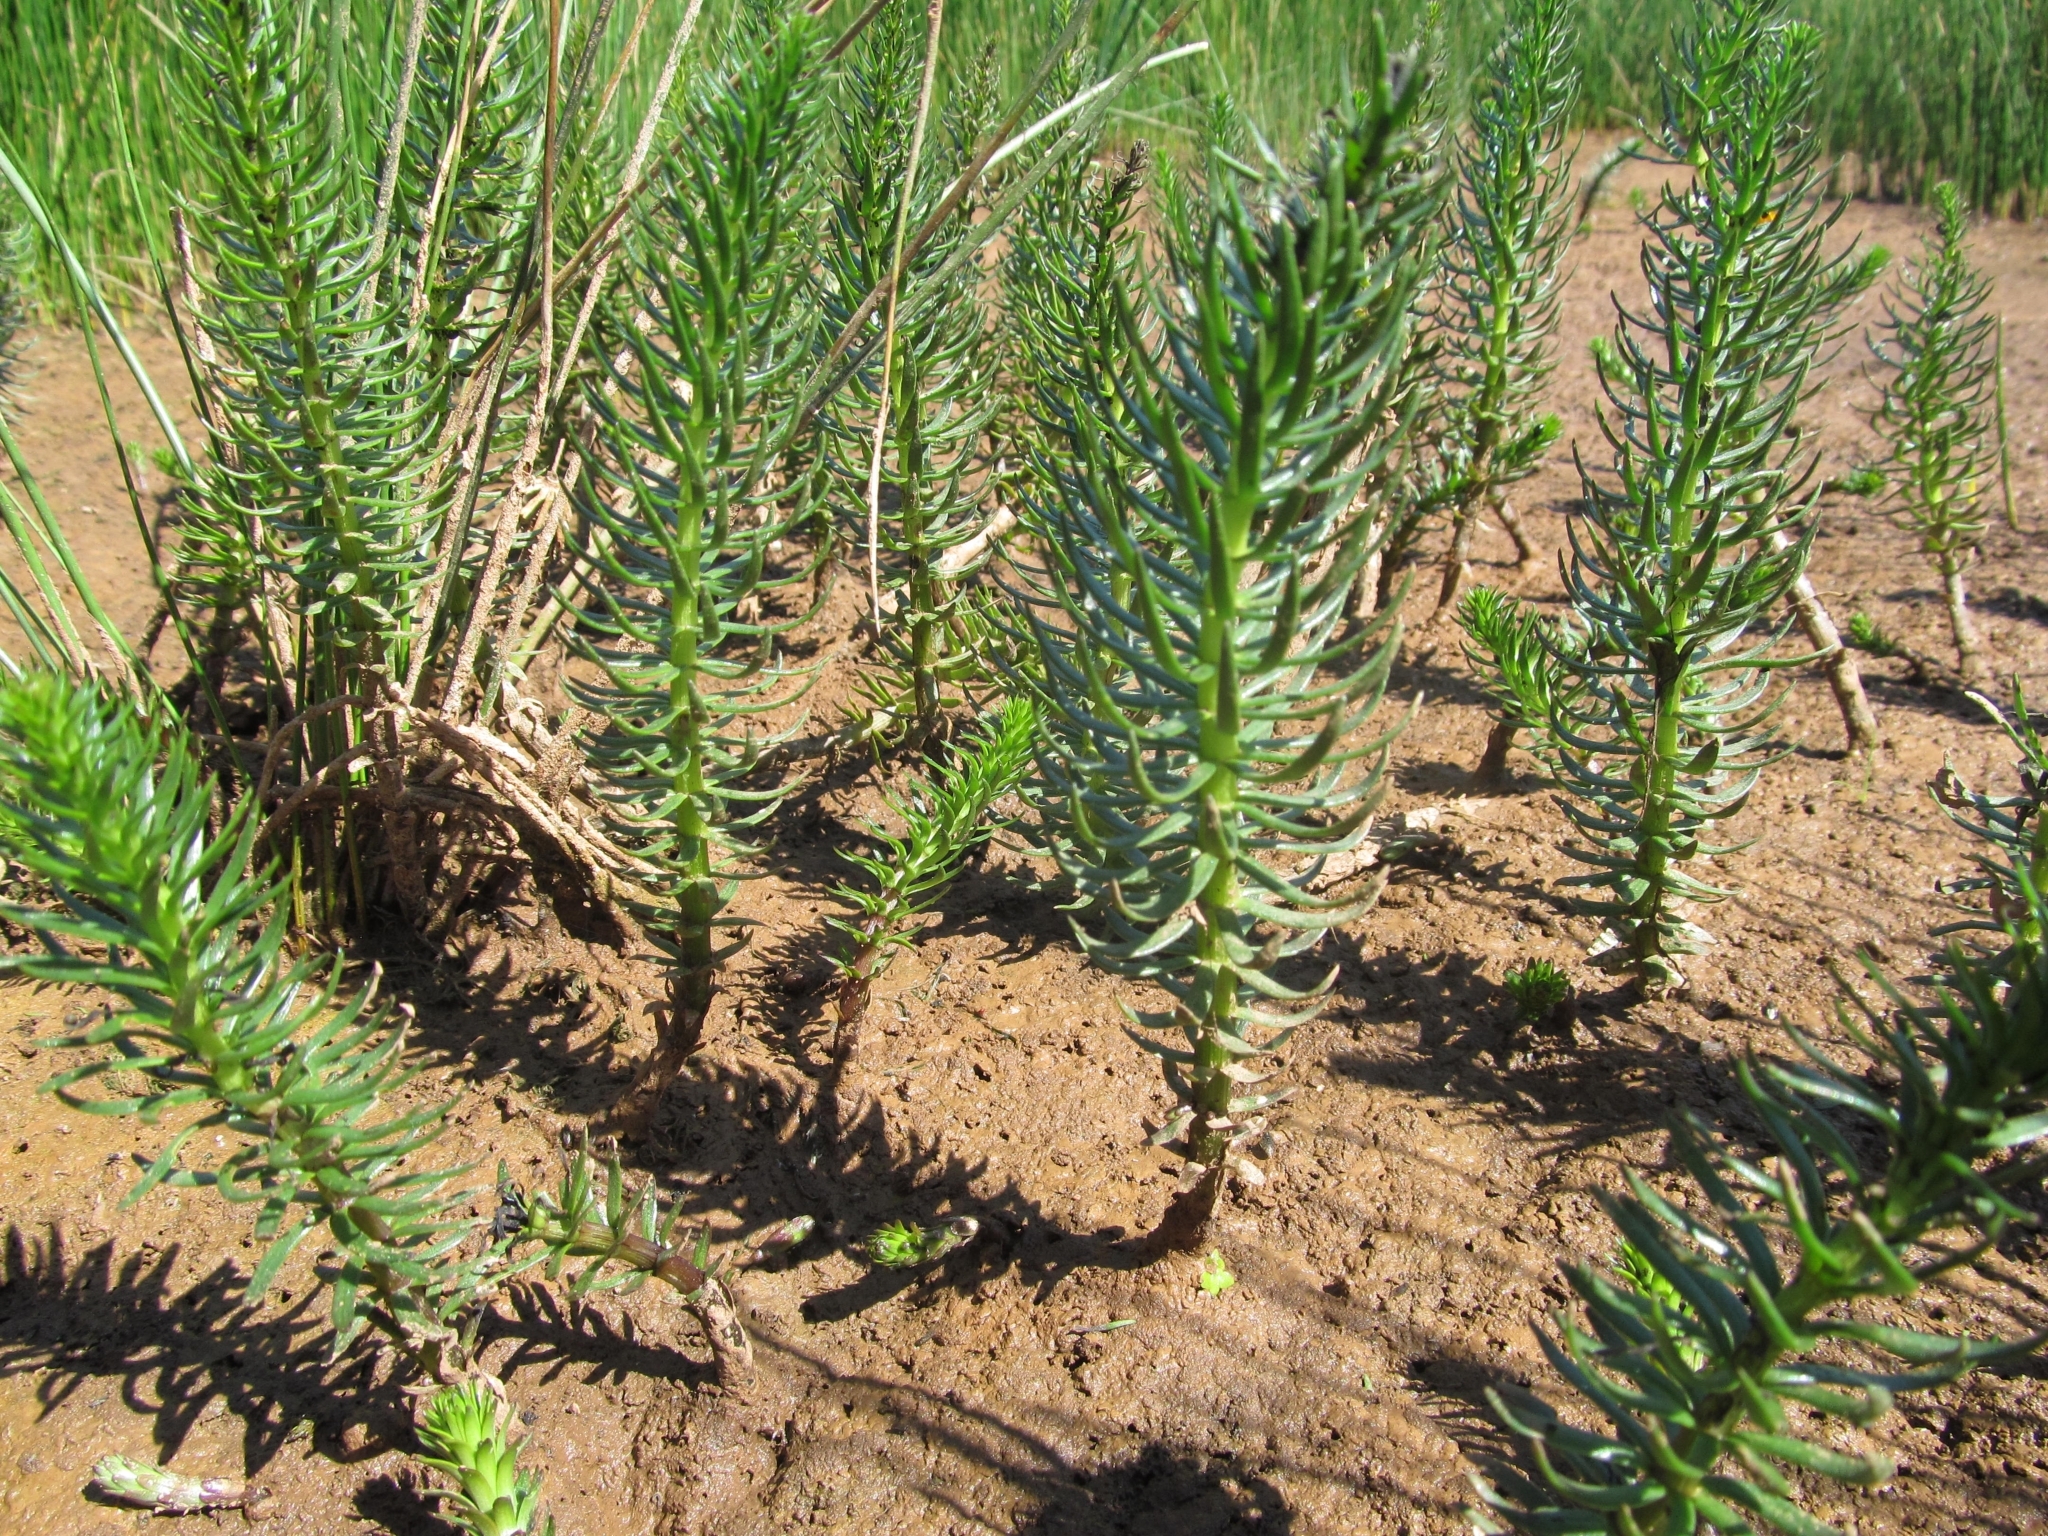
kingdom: Plantae
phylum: Tracheophyta
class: Magnoliopsida
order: Lamiales
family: Plantaginaceae
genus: Hippuris
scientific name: Hippuris vulgaris
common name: Mare's-tail
